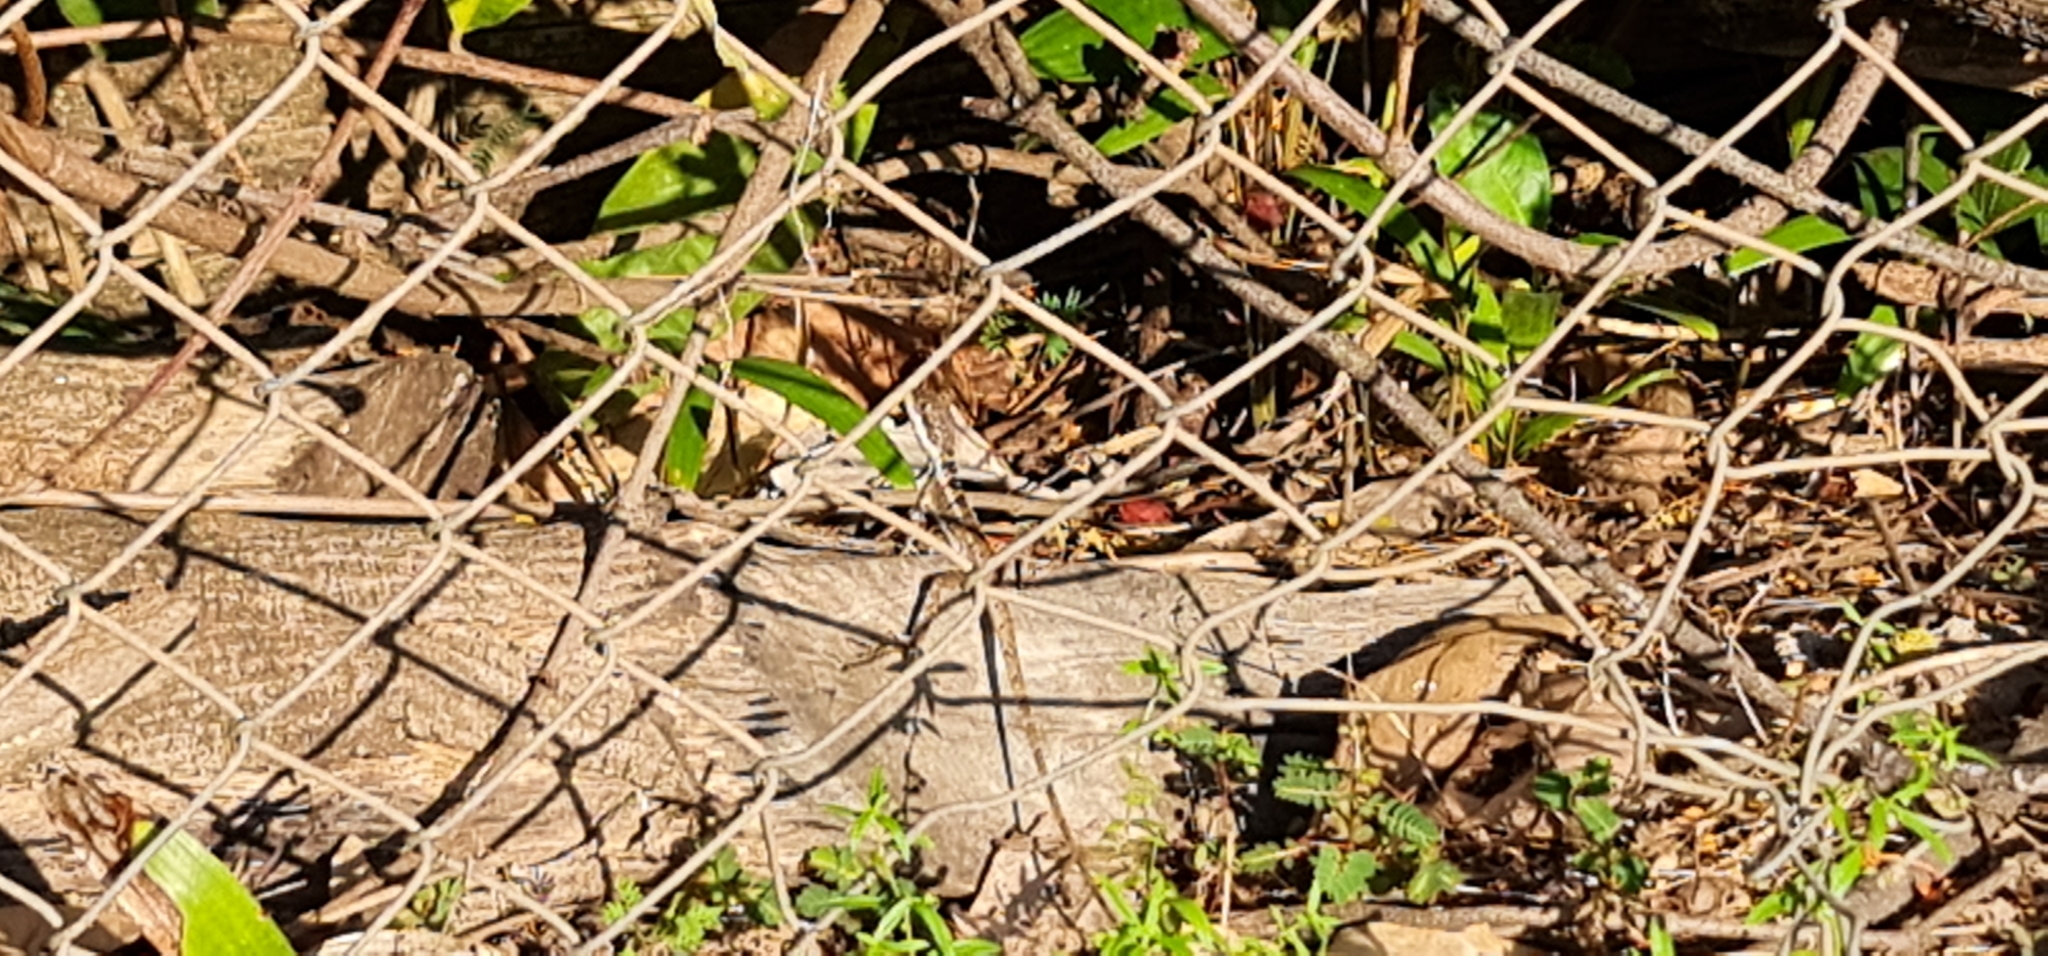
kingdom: Animalia
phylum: Chordata
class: Squamata
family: Agamidae
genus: Tropicagama
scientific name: Tropicagama temporalis
